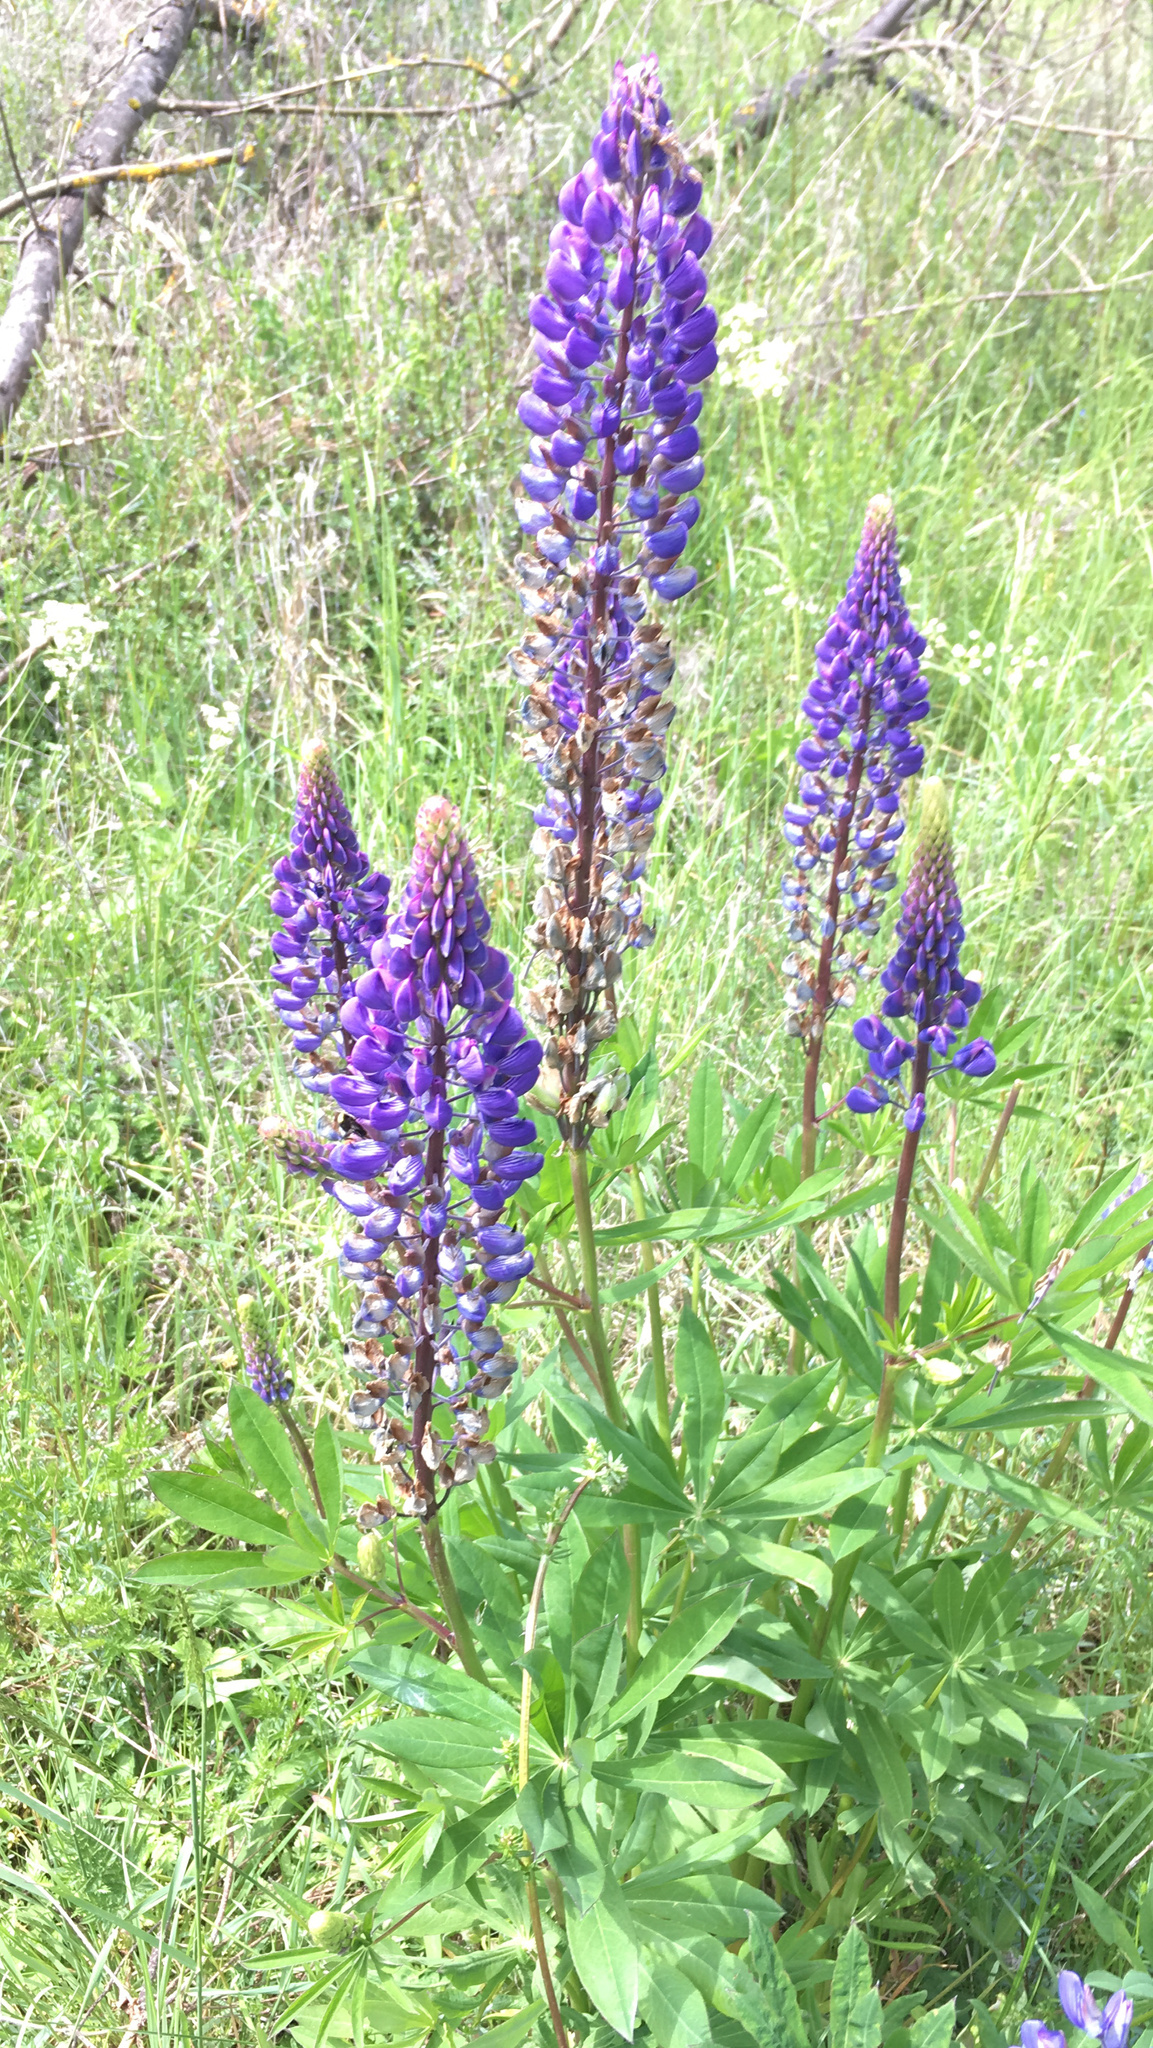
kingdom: Plantae
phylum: Tracheophyta
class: Magnoliopsida
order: Fabales
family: Fabaceae
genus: Lupinus
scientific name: Lupinus polyphyllus
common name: Garden lupin
